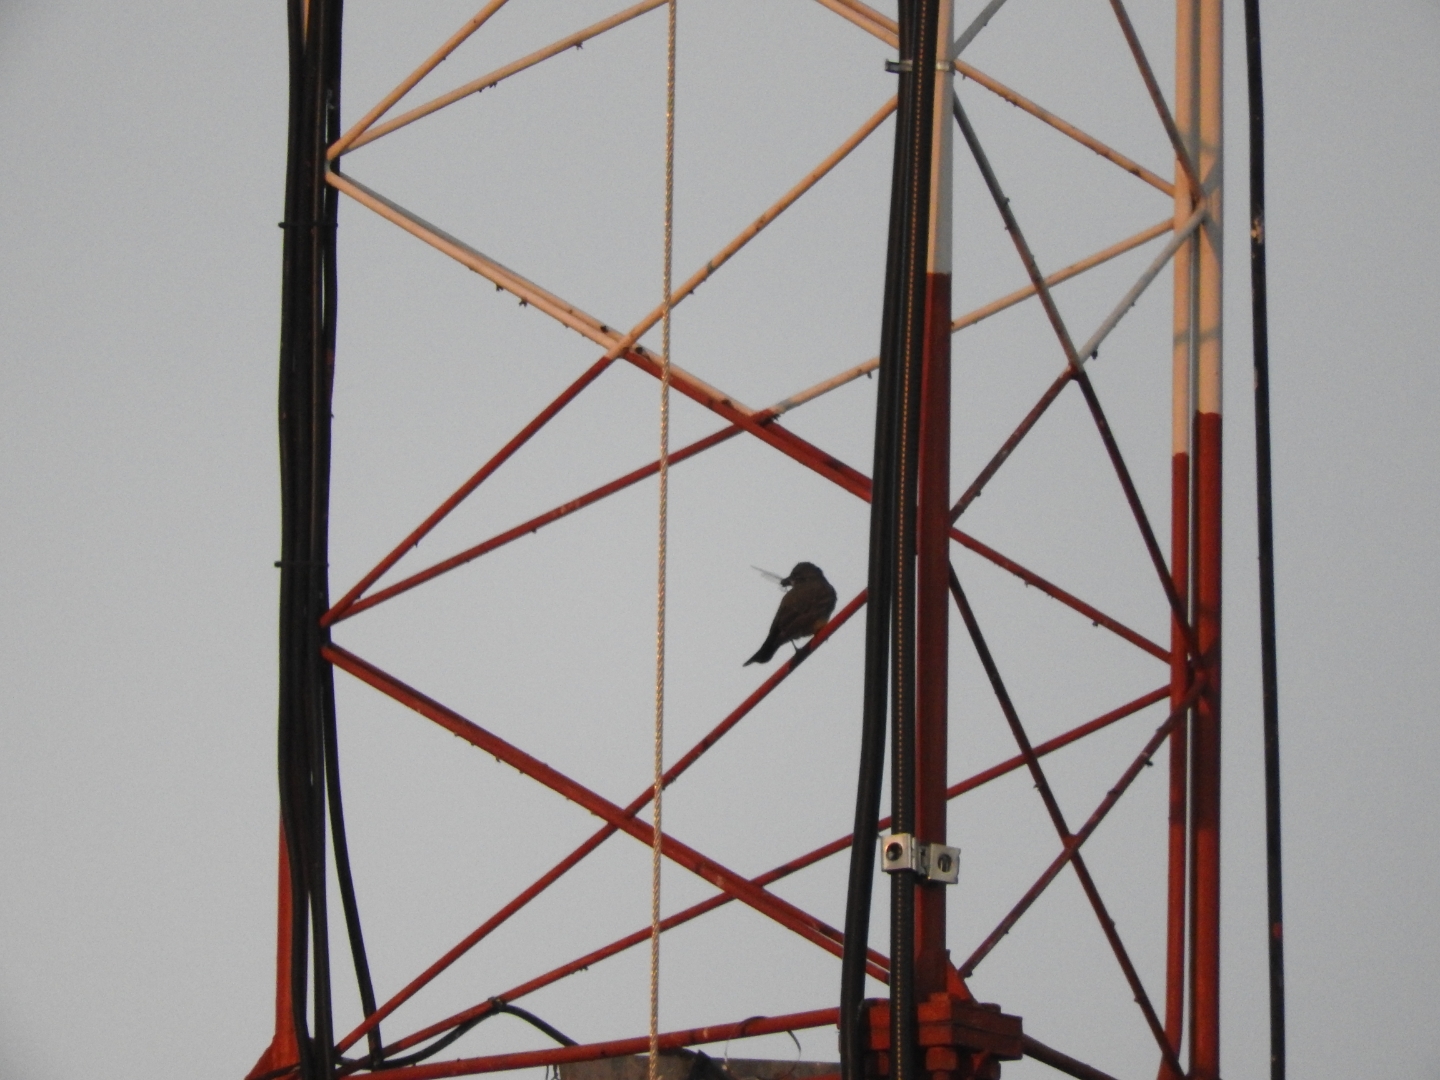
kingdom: Animalia
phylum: Chordata
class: Aves
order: Passeriformes
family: Tyrannidae
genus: Tyrannus
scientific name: Tyrannus vociferans
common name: Cassin's kingbird
